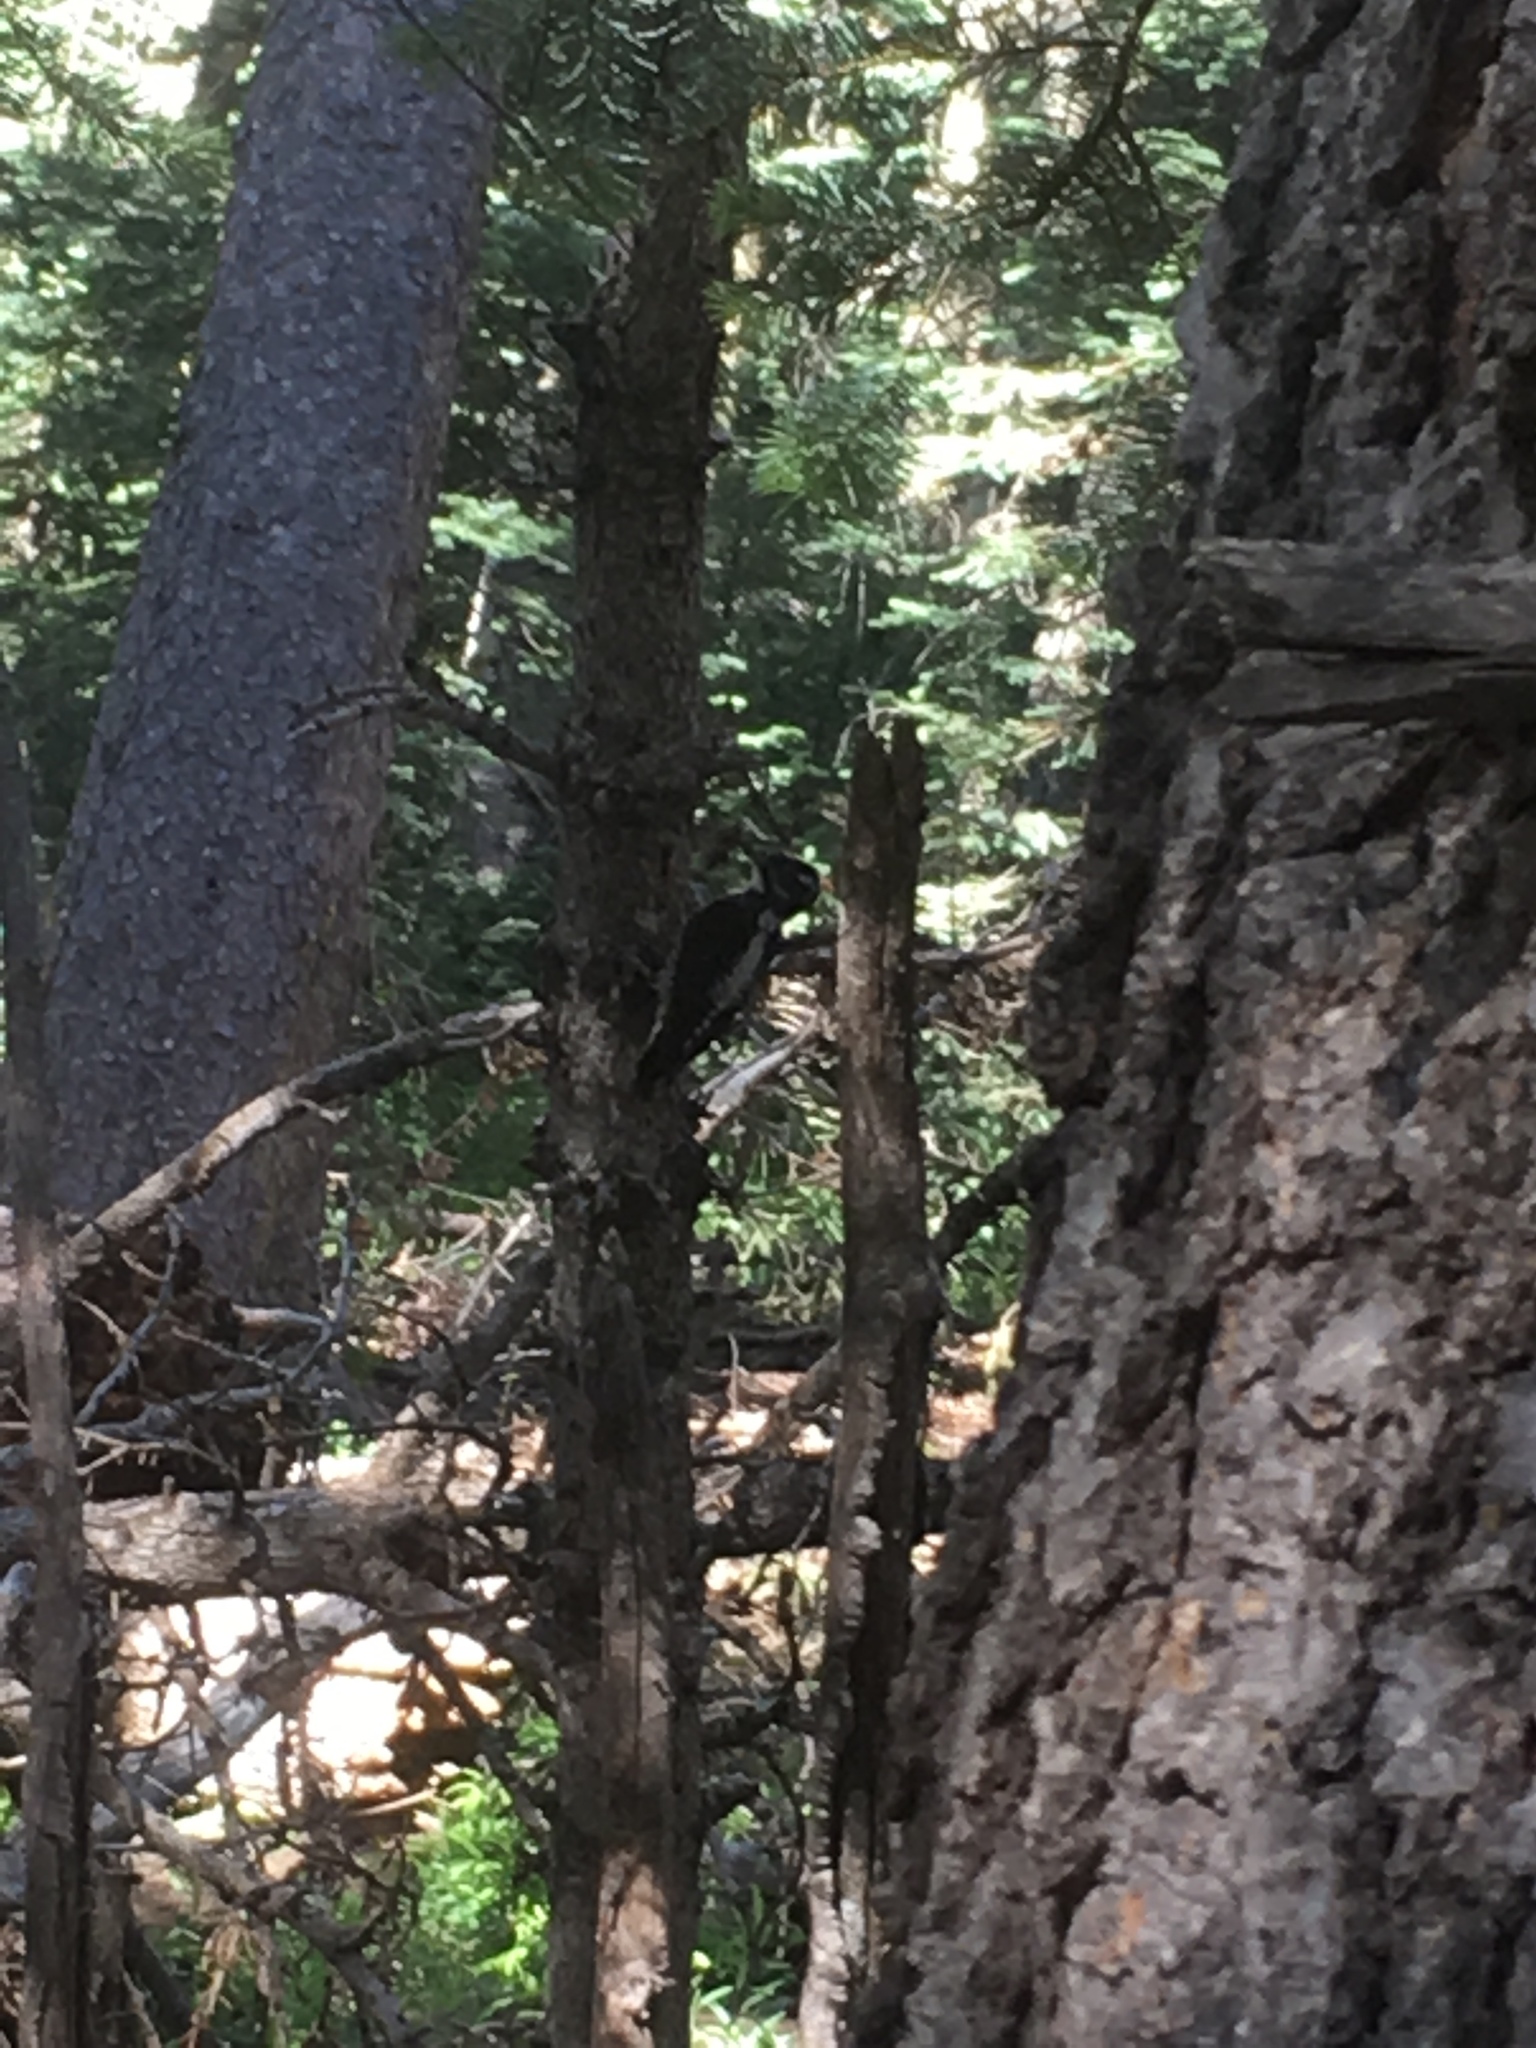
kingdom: Animalia
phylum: Chordata
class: Aves
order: Piciformes
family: Picidae
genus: Picoides
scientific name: Picoides dorsalis
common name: American three-toed woodpecker
